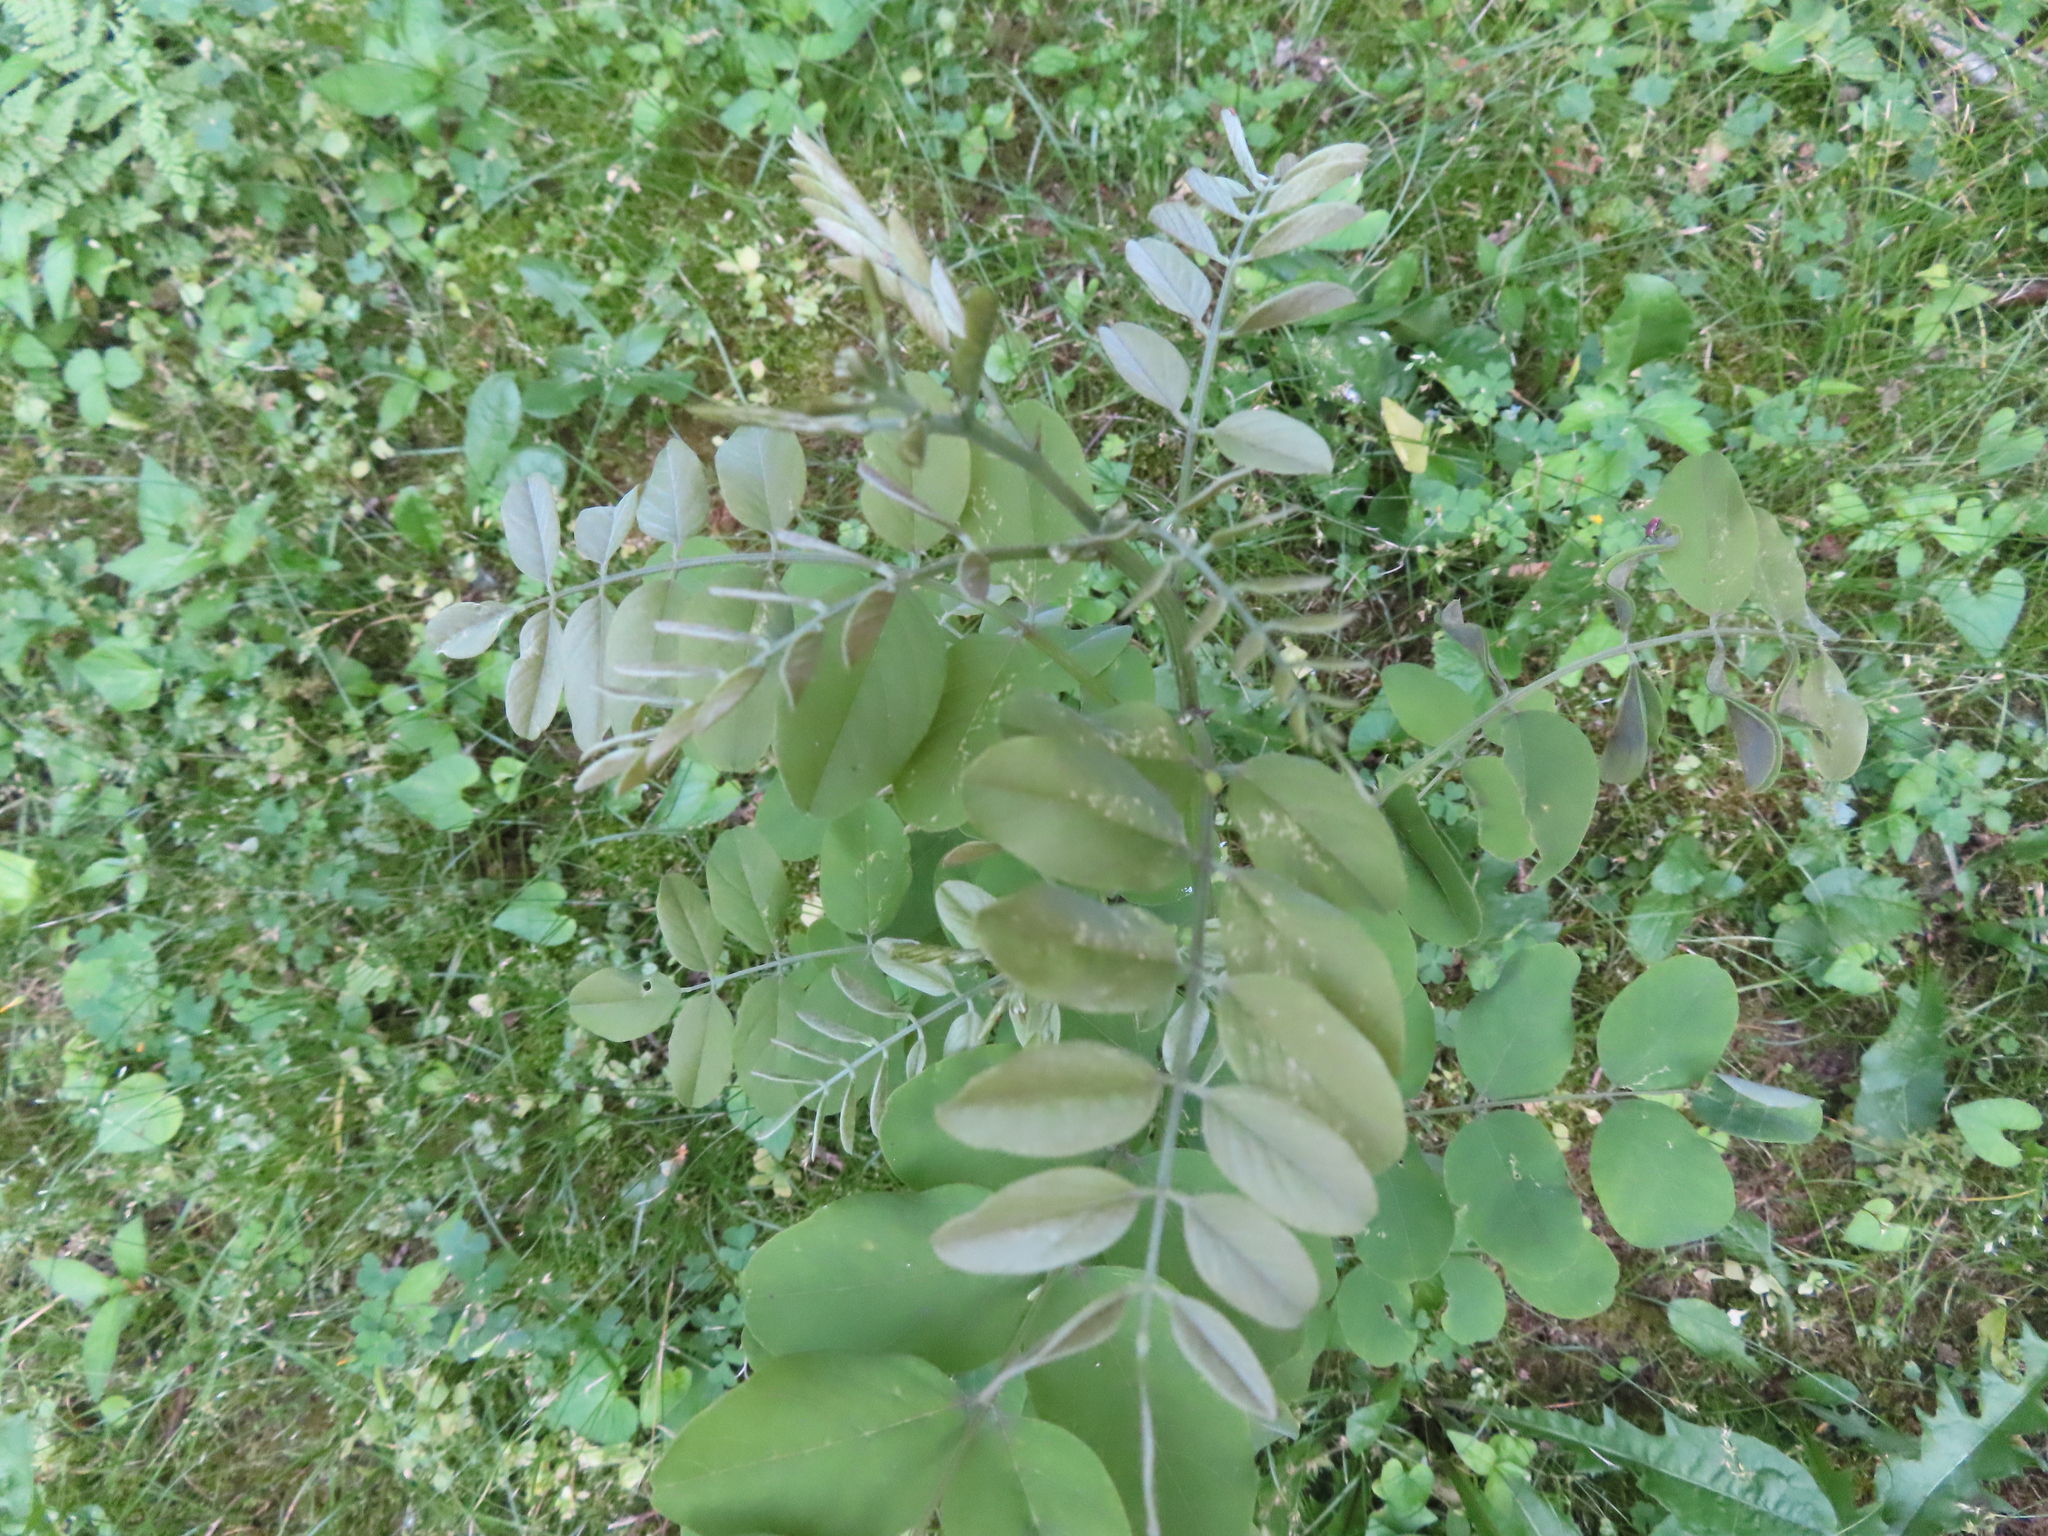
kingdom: Plantae
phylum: Tracheophyta
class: Magnoliopsida
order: Fabales
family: Fabaceae
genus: Robinia
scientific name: Robinia pseudoacacia
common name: Black locust
